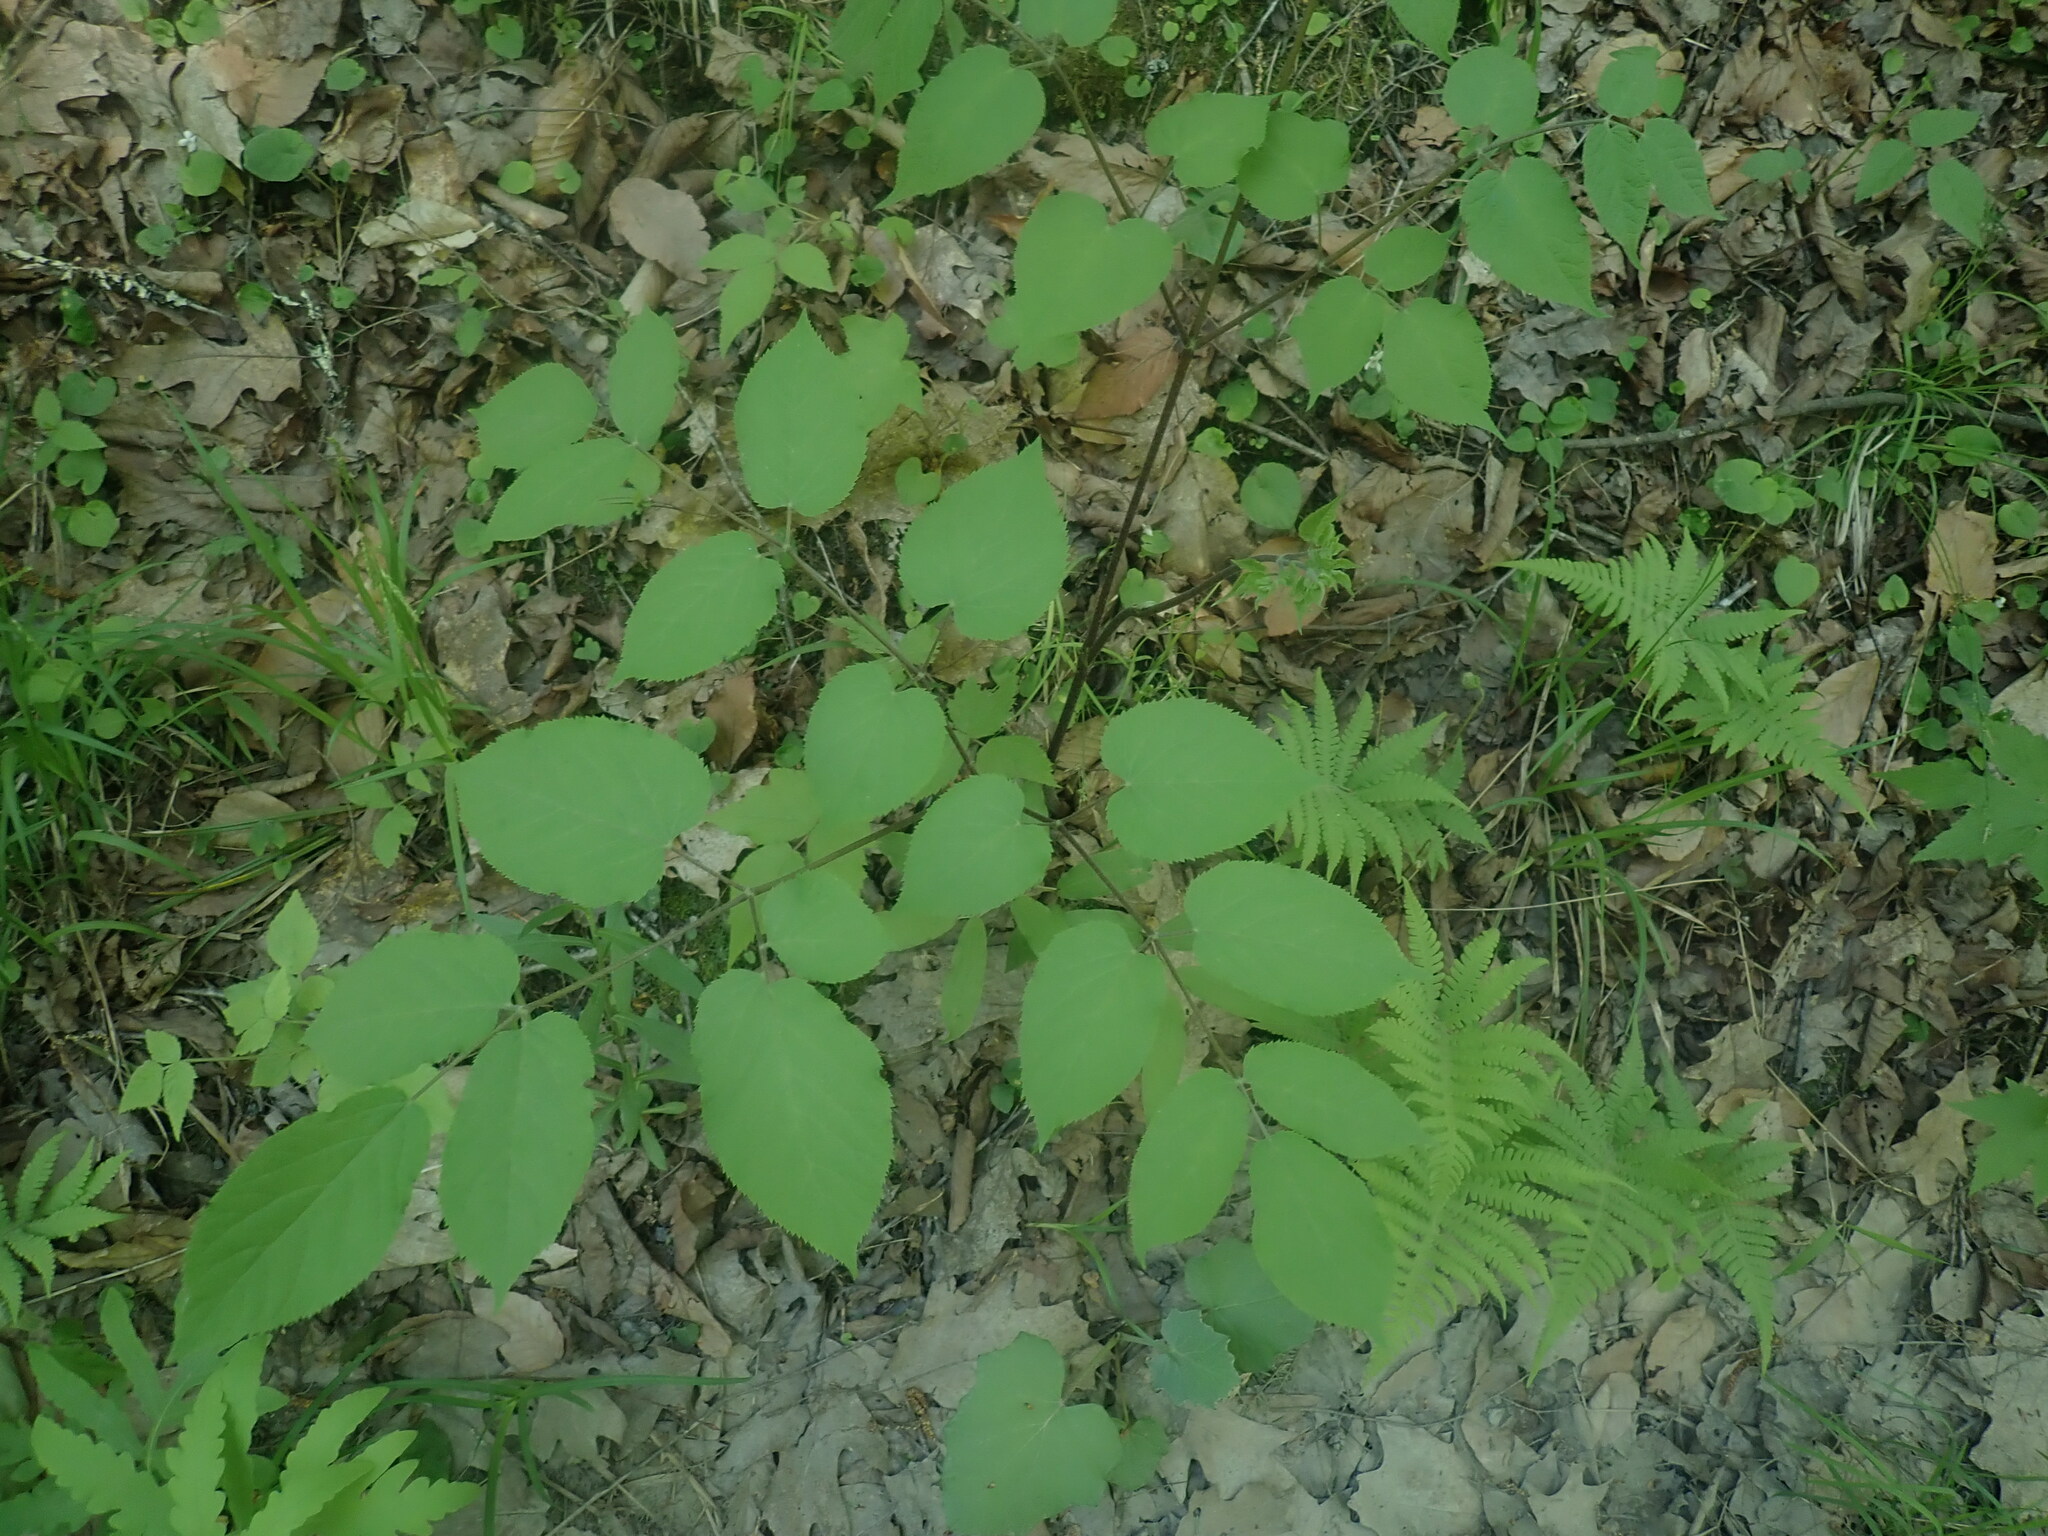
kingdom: Plantae
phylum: Tracheophyta
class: Magnoliopsida
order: Apiales
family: Araliaceae
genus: Aralia
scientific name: Aralia racemosa
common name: American-spikenard
